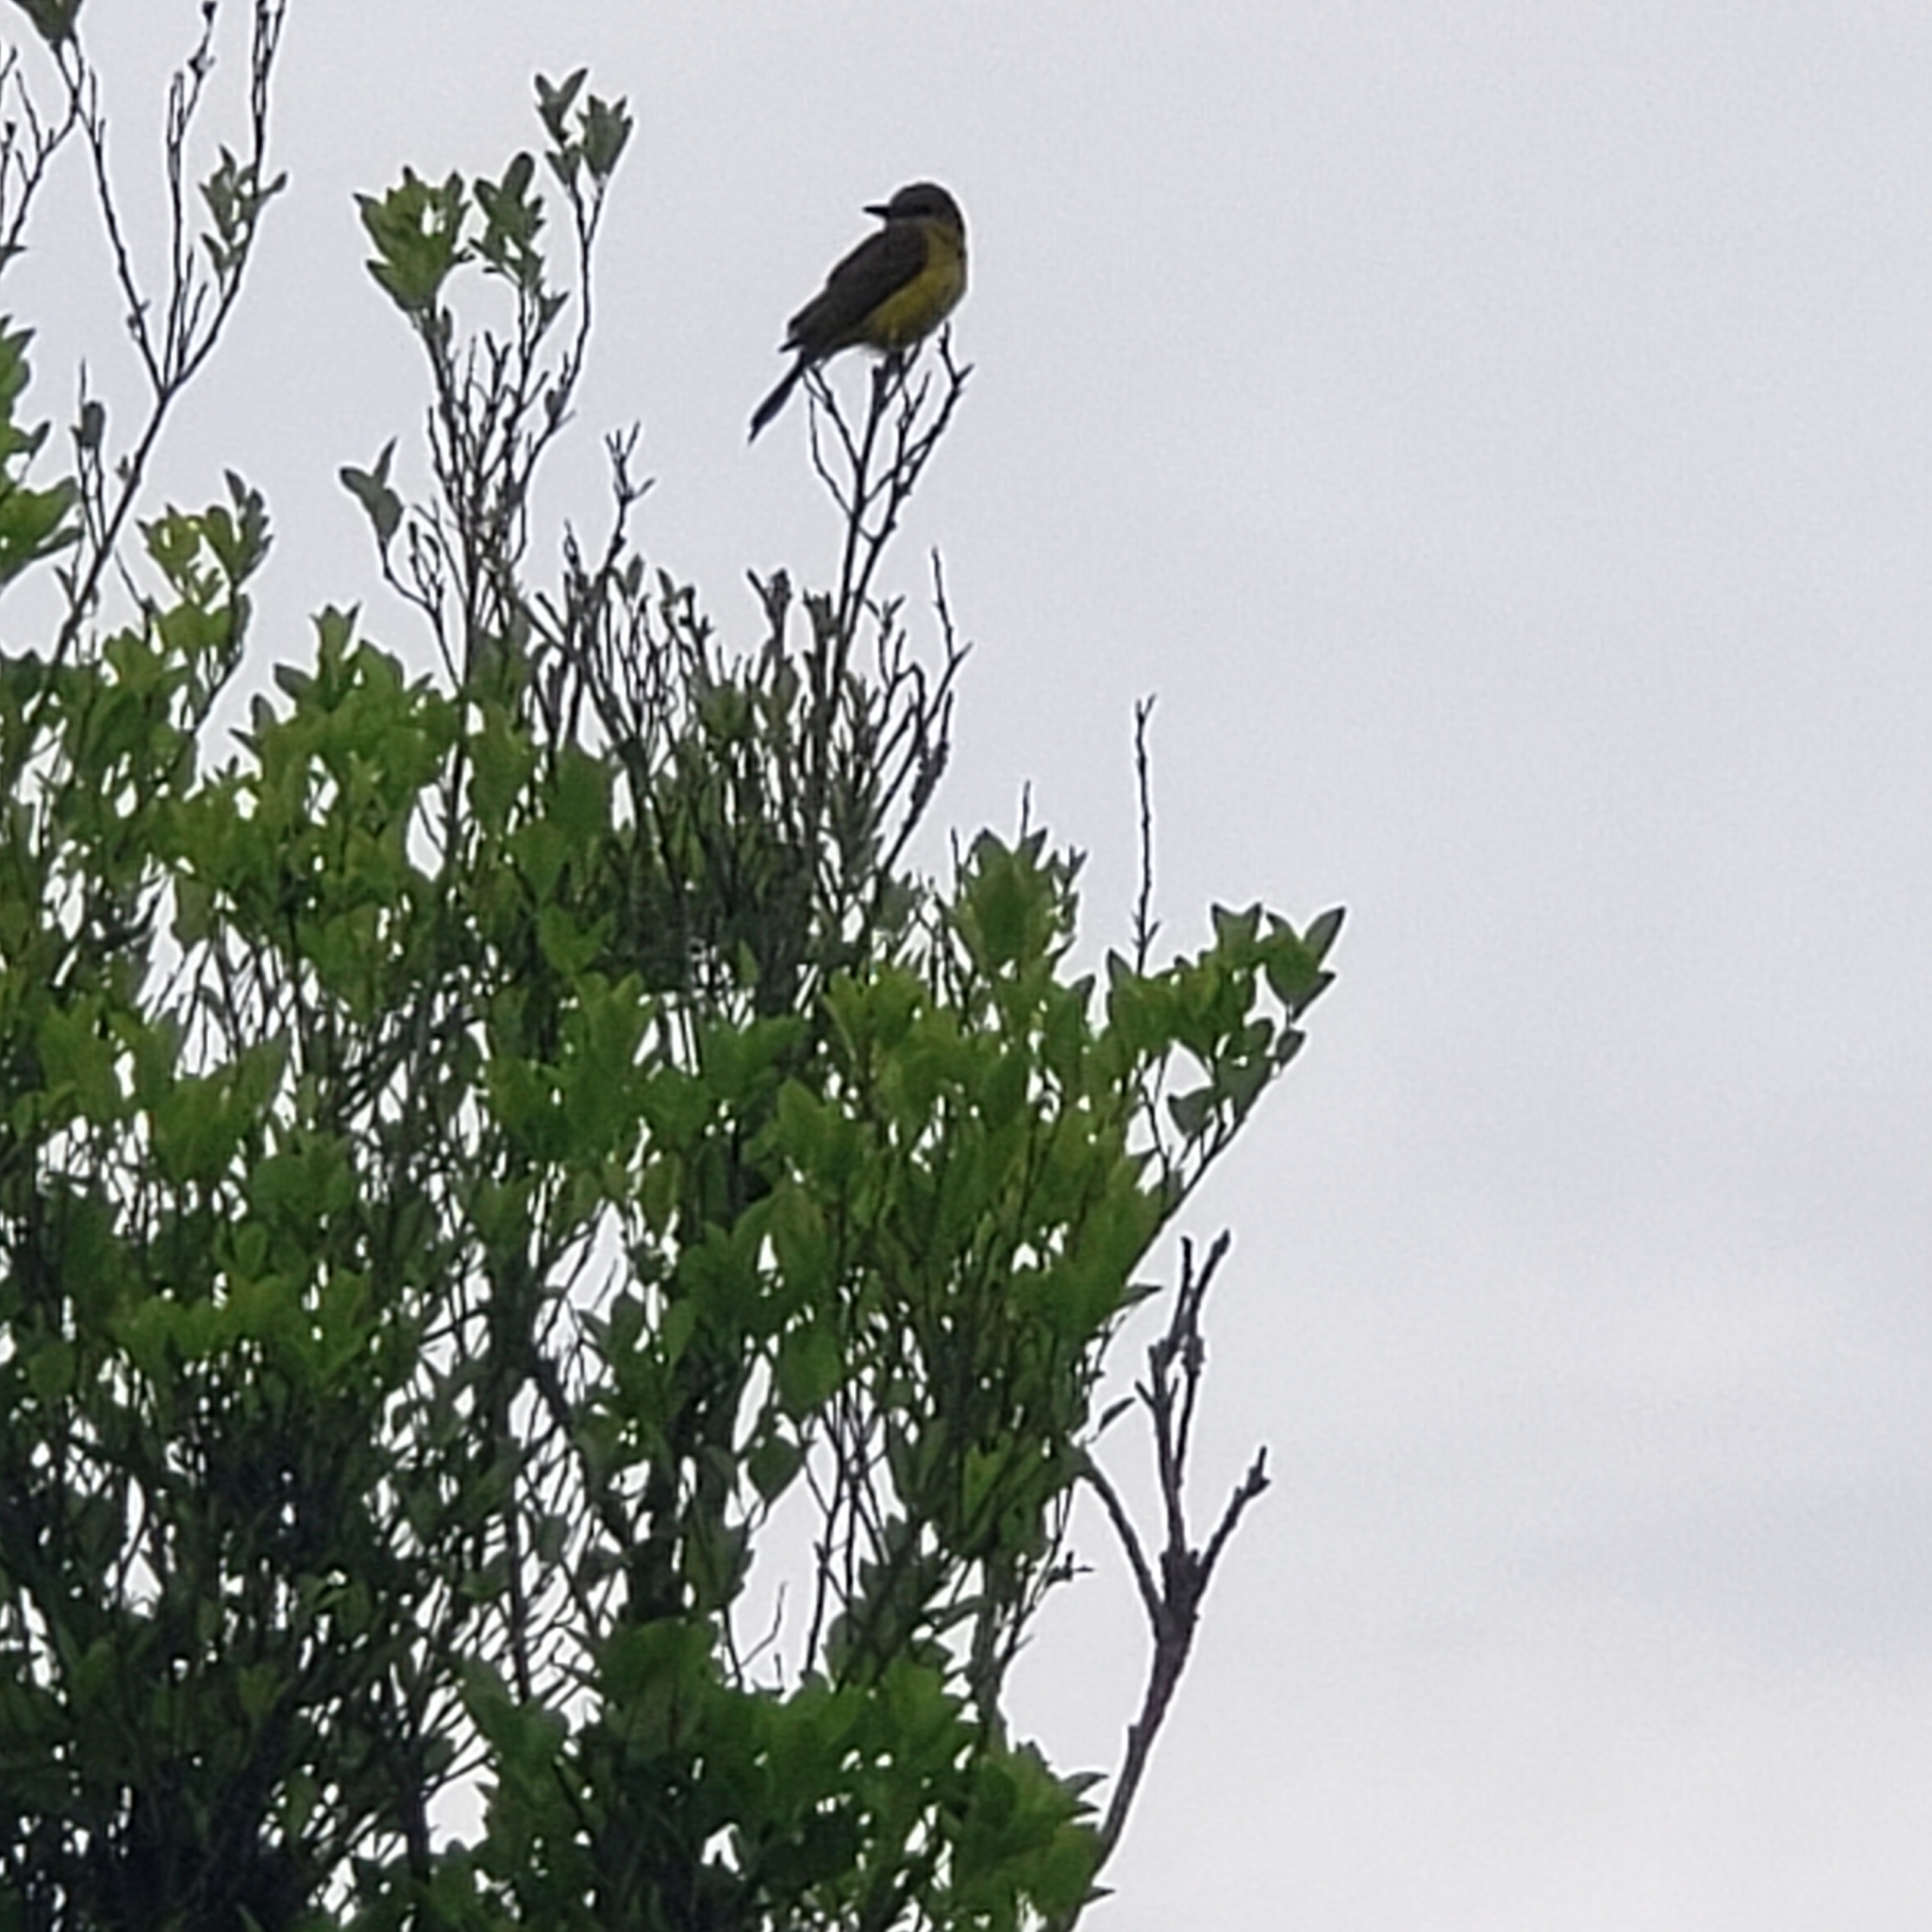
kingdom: Animalia
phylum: Chordata
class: Aves
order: Passeriformes
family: Tyrannidae
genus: Tyrannus
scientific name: Tyrannus melancholicus
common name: Tropical kingbird
